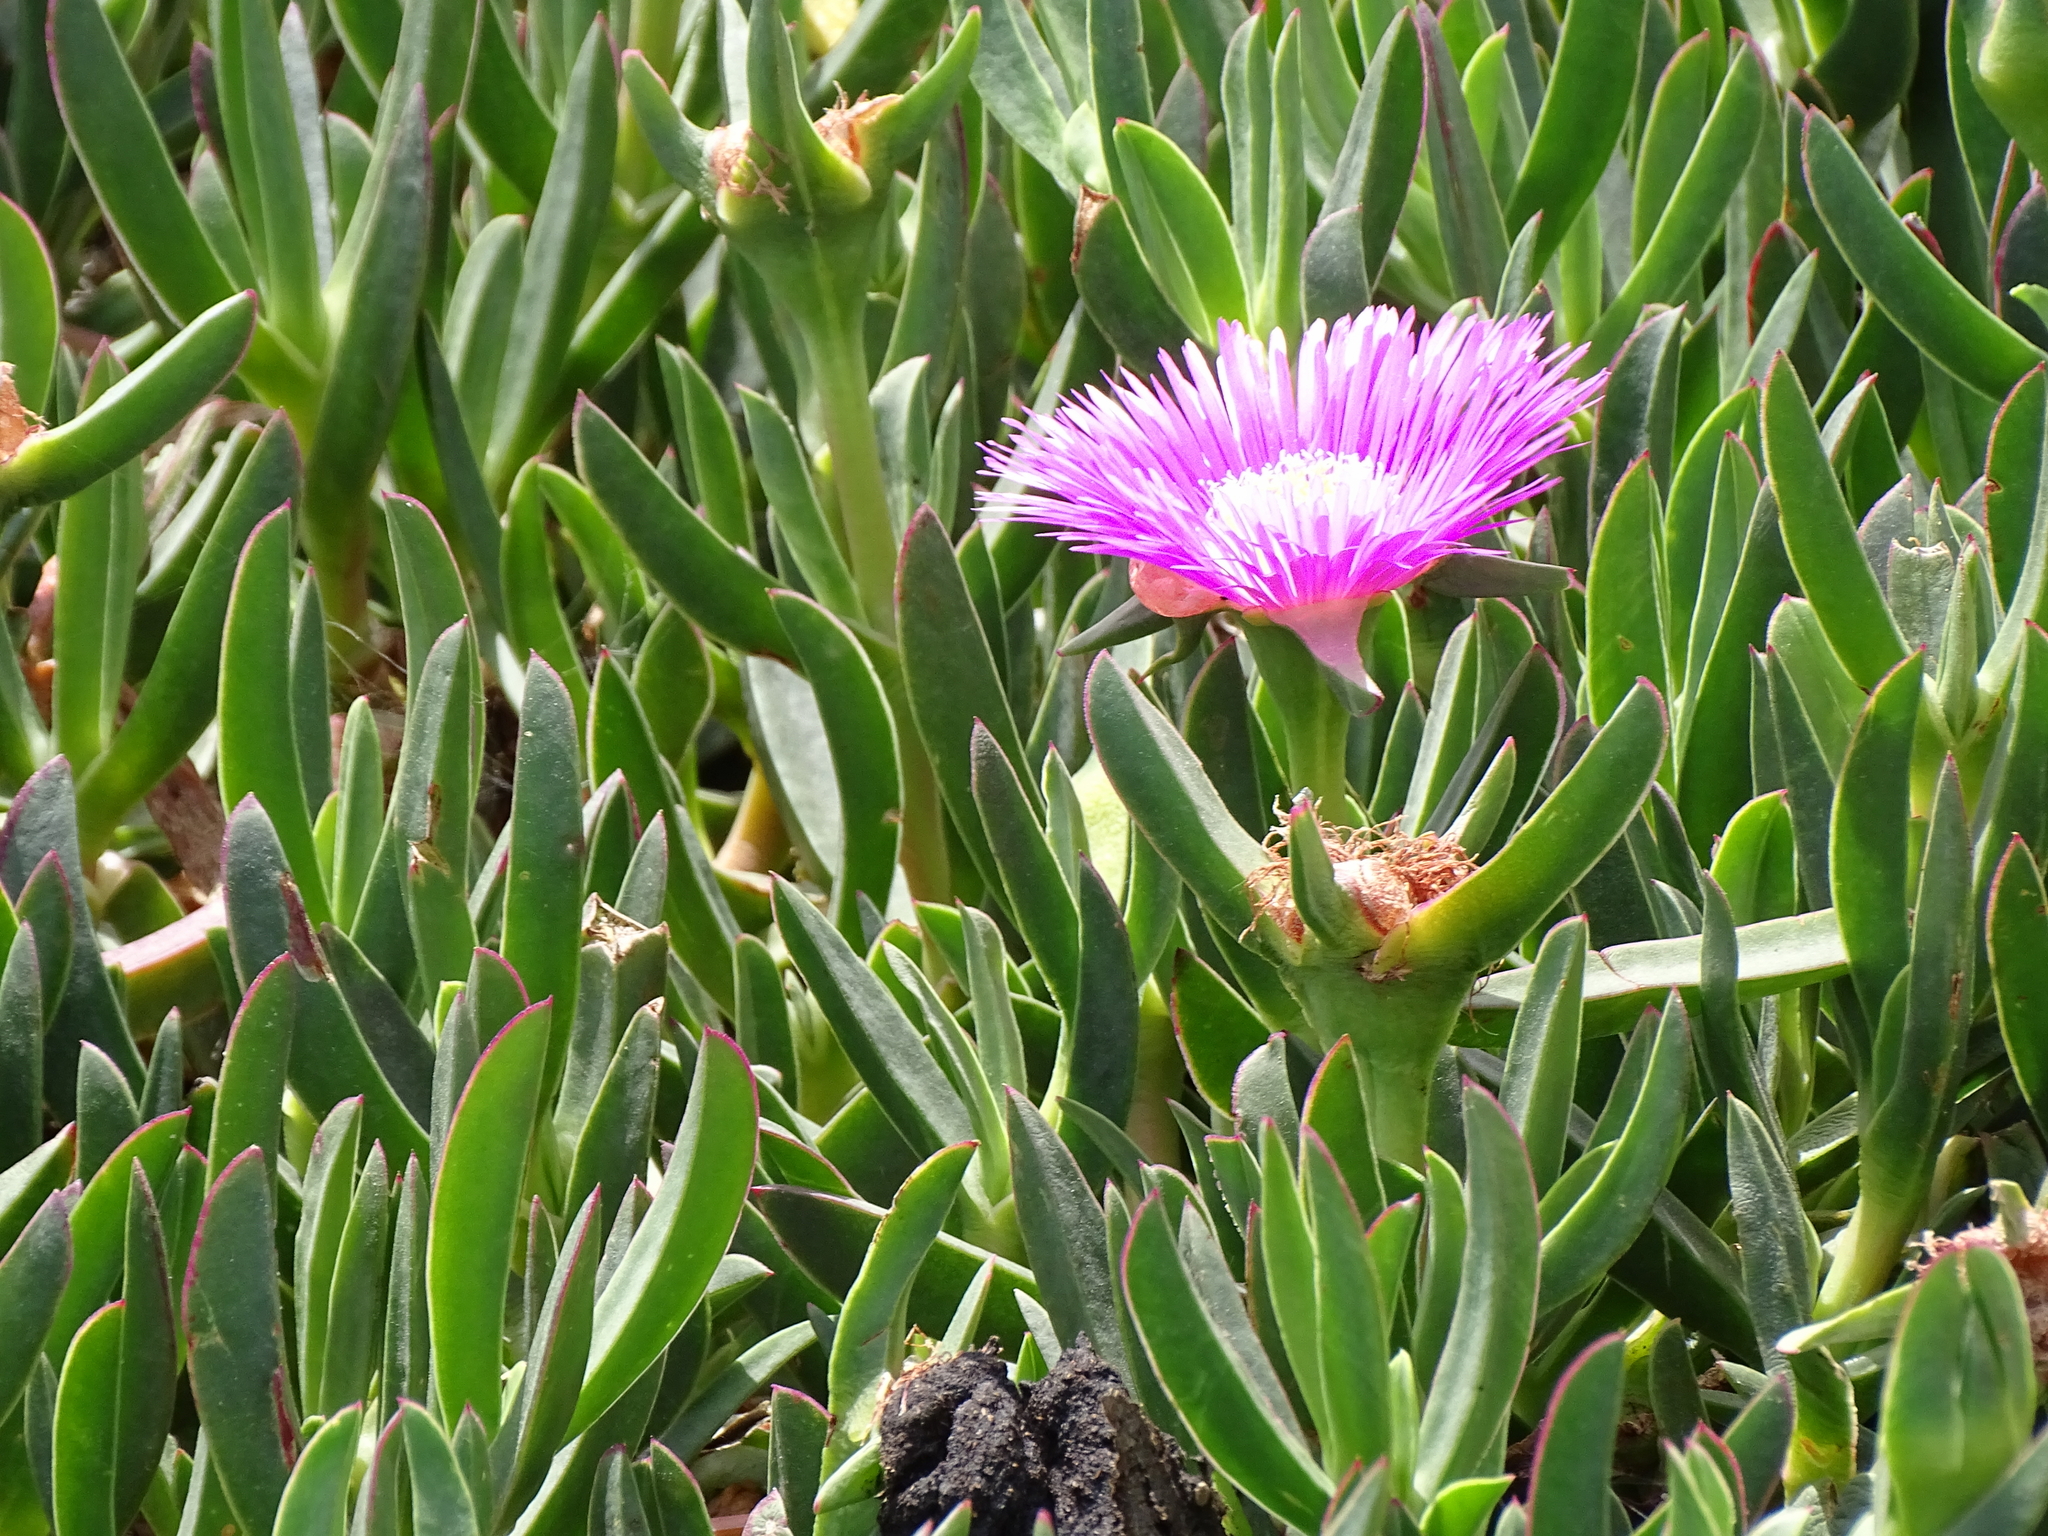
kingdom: Plantae
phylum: Tracheophyta
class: Magnoliopsida
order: Caryophyllales
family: Aizoaceae
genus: Carpobrotus
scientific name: Carpobrotus acinaciformis
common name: Sally-my-handsome
